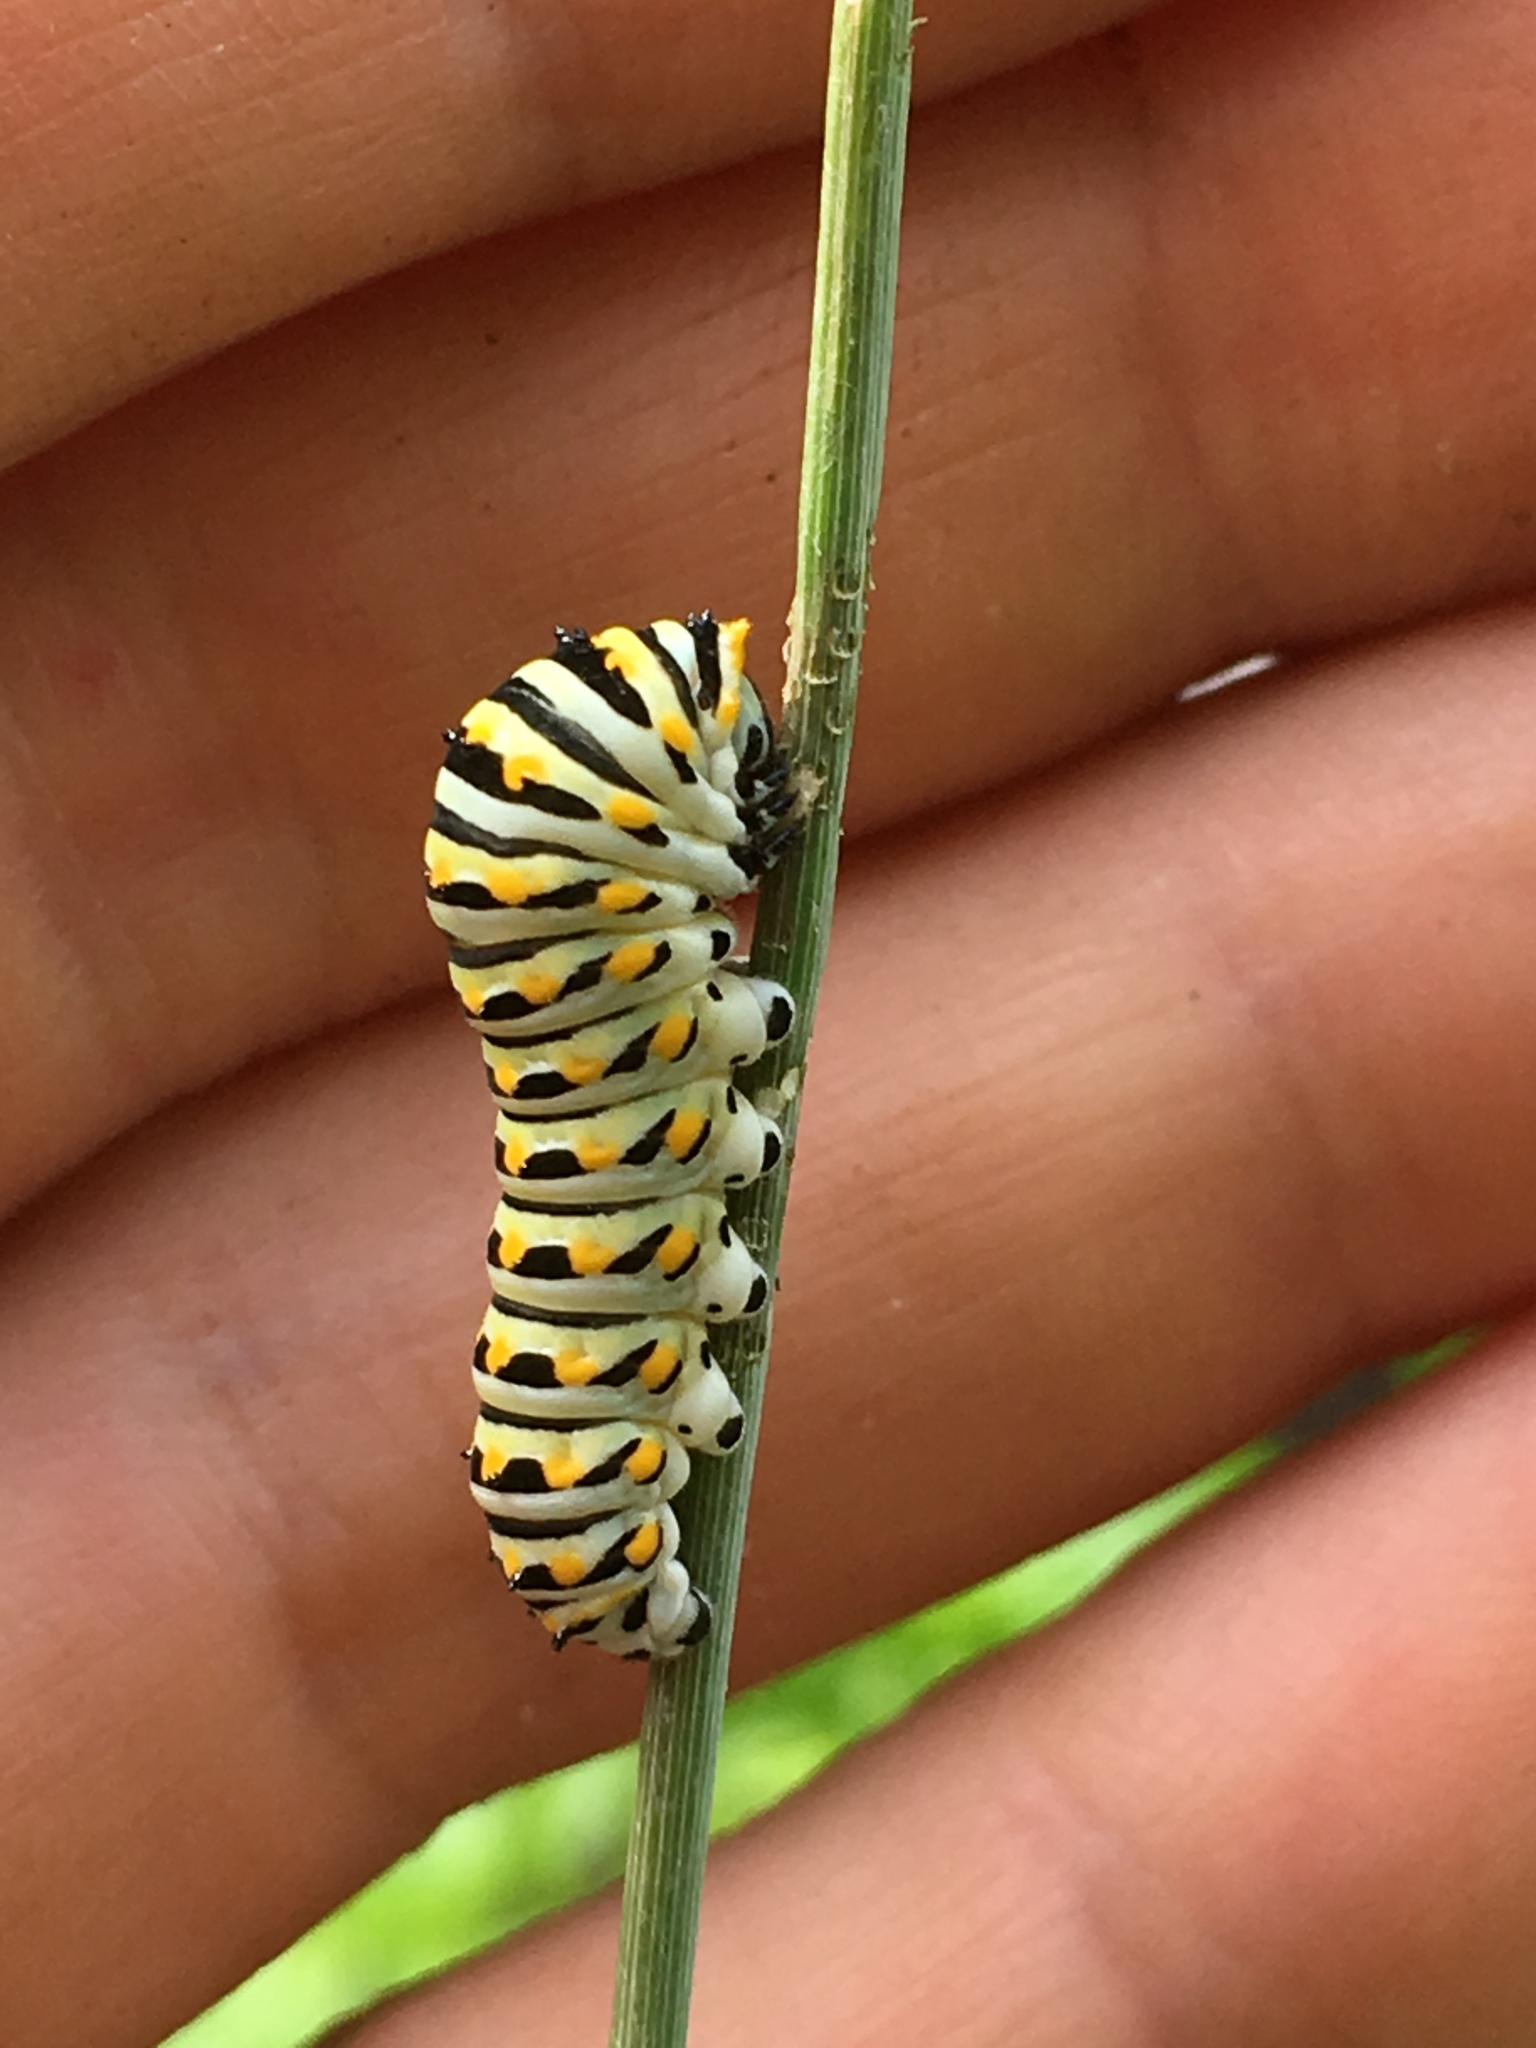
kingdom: Animalia
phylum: Arthropoda
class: Insecta
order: Lepidoptera
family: Papilionidae
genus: Papilio
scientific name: Papilio polyxenes
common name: Black swallowtail
